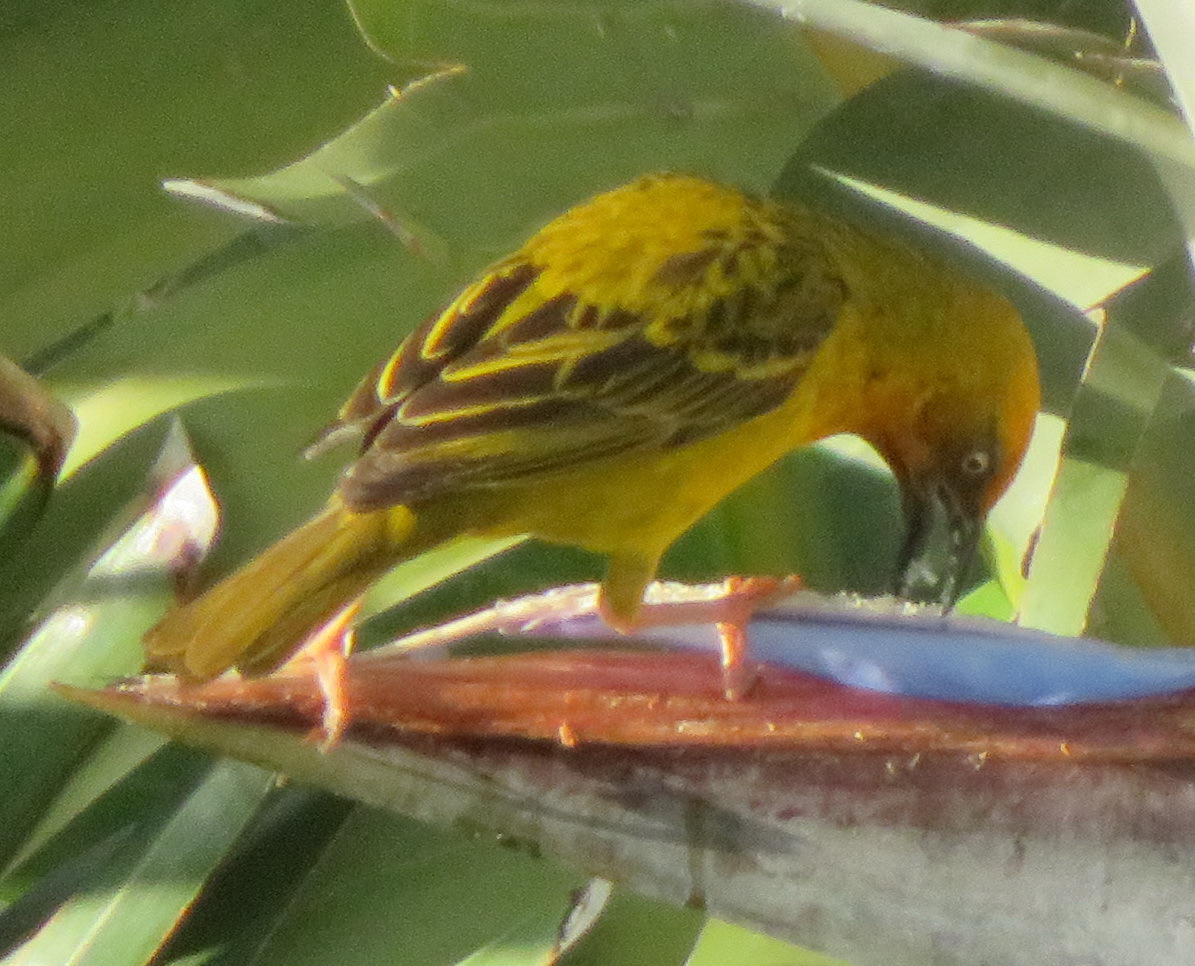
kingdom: Animalia
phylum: Chordata
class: Aves
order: Passeriformes
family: Ploceidae
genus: Ploceus
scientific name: Ploceus capensis
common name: Cape weaver
